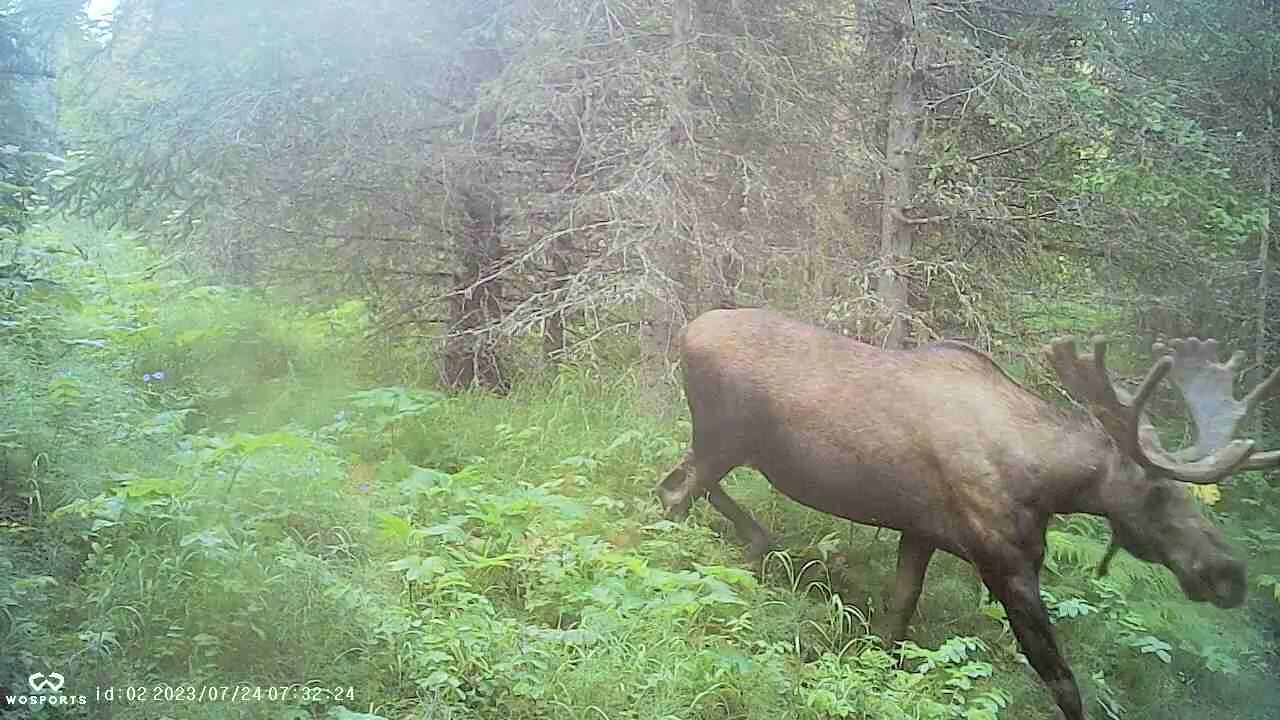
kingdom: Animalia
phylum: Chordata
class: Mammalia
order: Artiodactyla
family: Cervidae
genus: Alces
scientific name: Alces alces
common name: Moose
